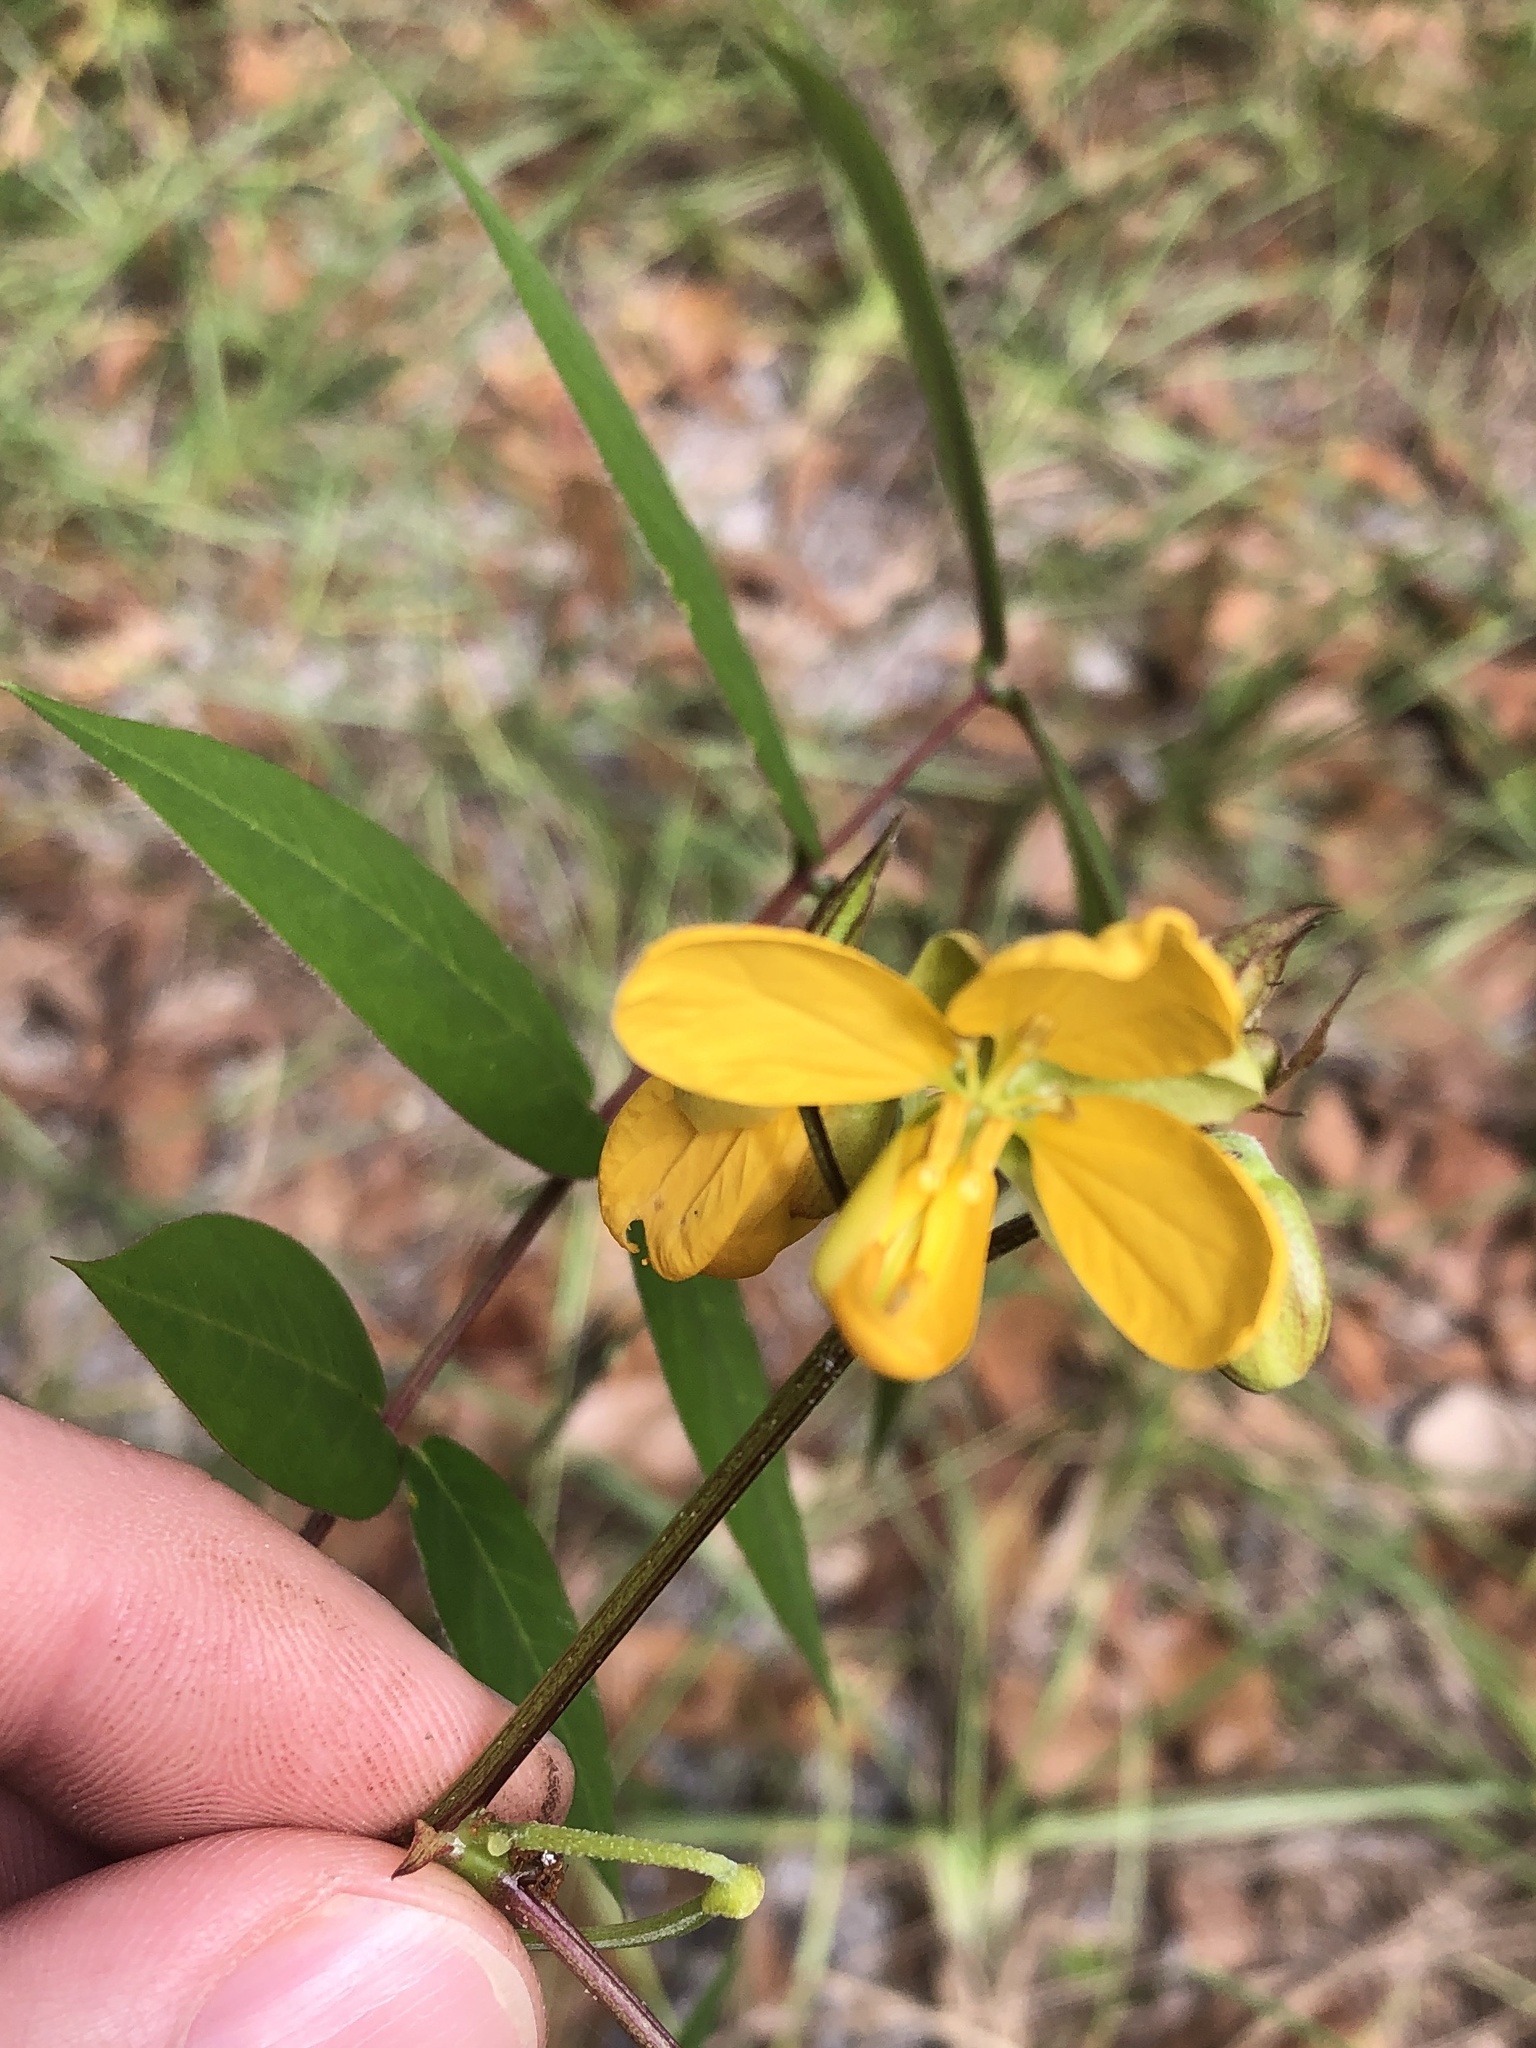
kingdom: Plantae
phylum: Tracheophyta
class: Magnoliopsida
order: Fabales
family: Fabaceae
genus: Senna
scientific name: Senna occidentalis
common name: Septicweed
